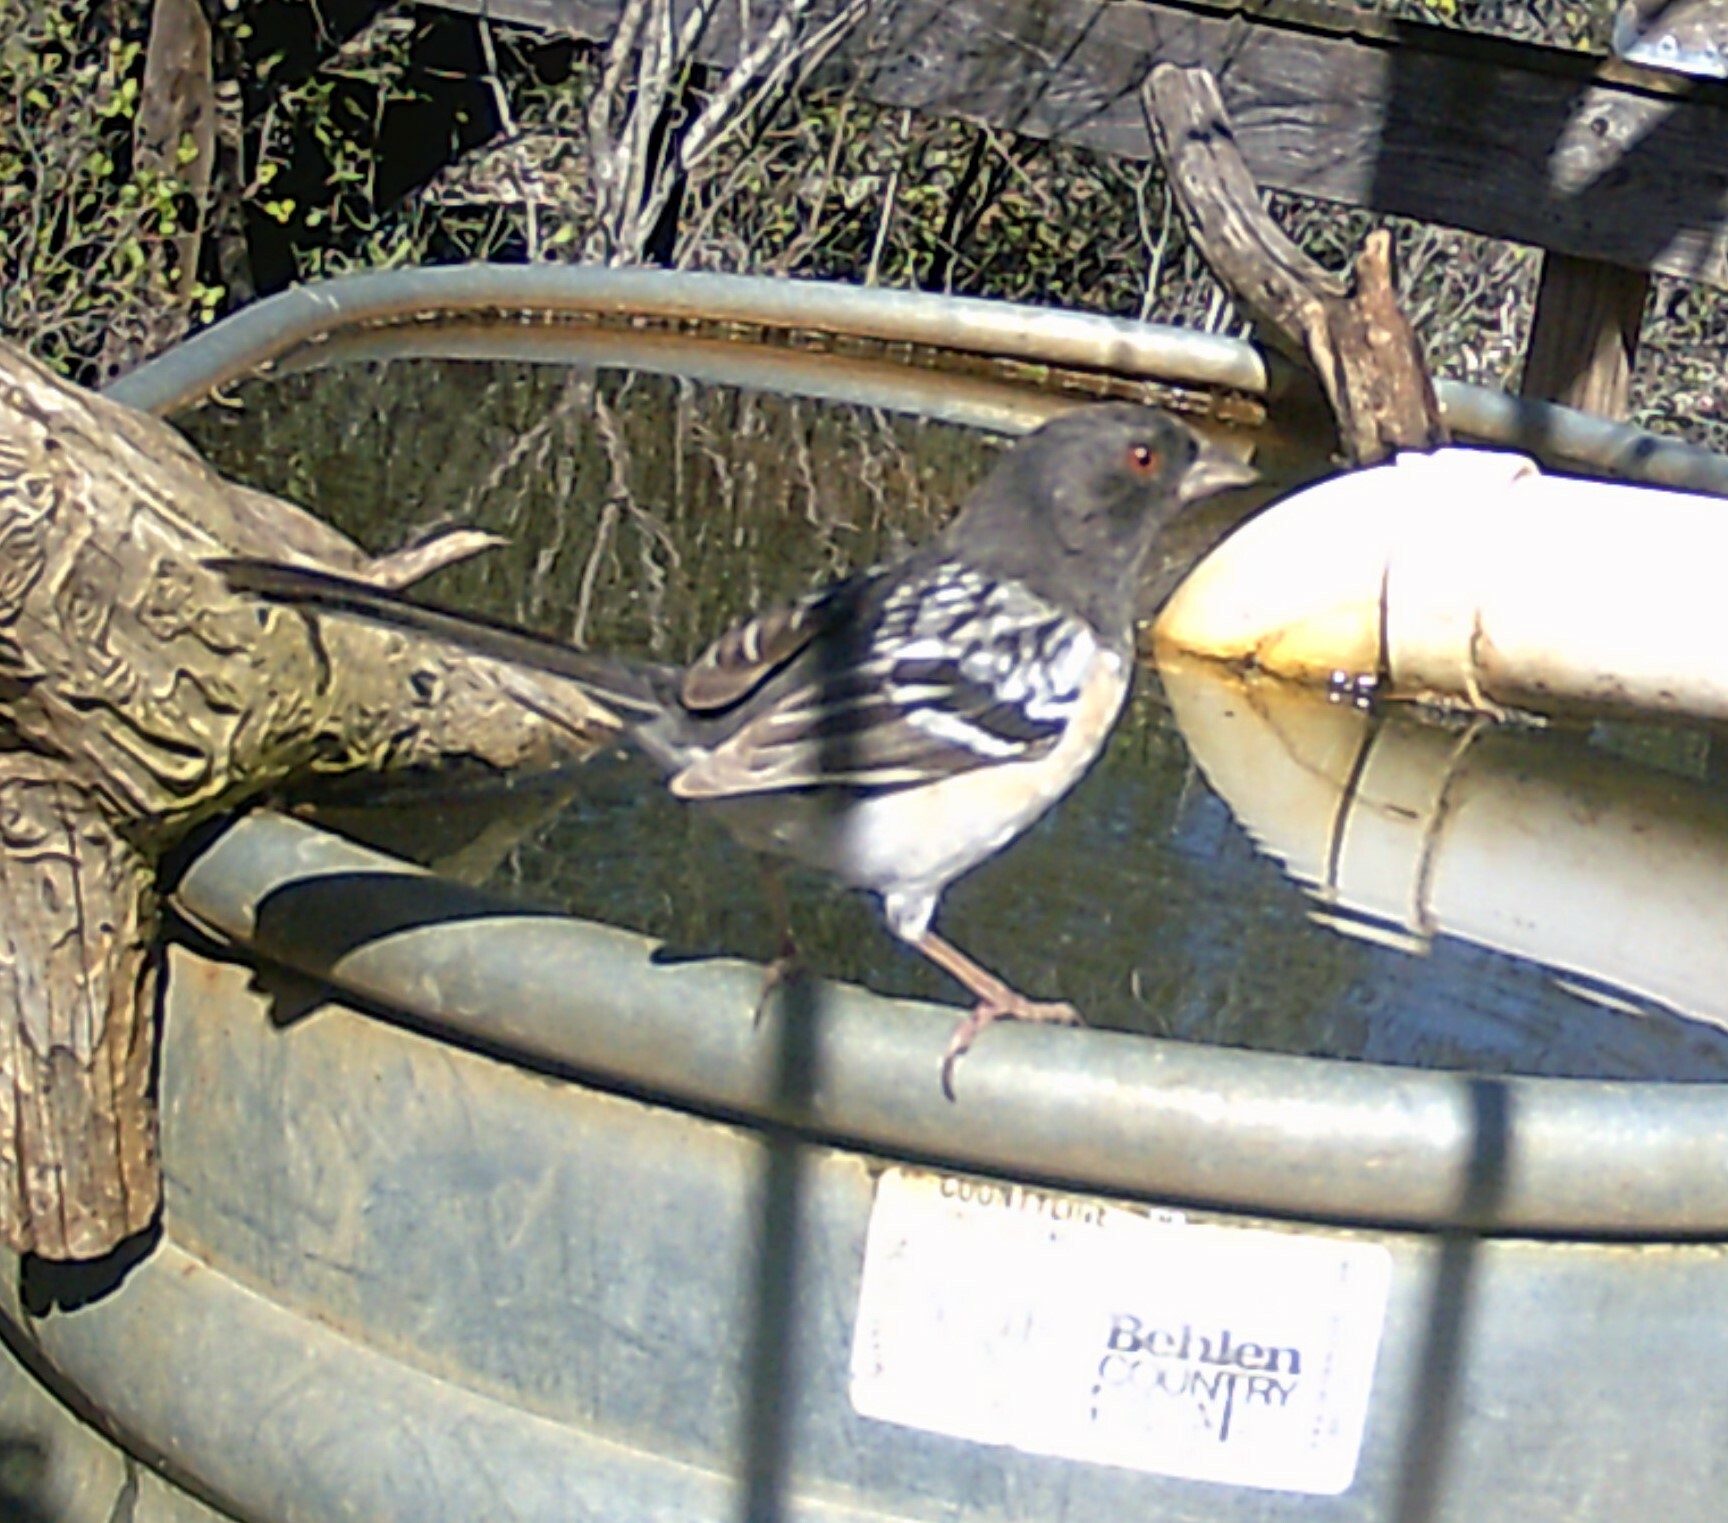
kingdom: Animalia
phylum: Chordata
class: Aves
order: Passeriformes
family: Passerellidae
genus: Pipilo
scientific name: Pipilo maculatus
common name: Spotted towhee
